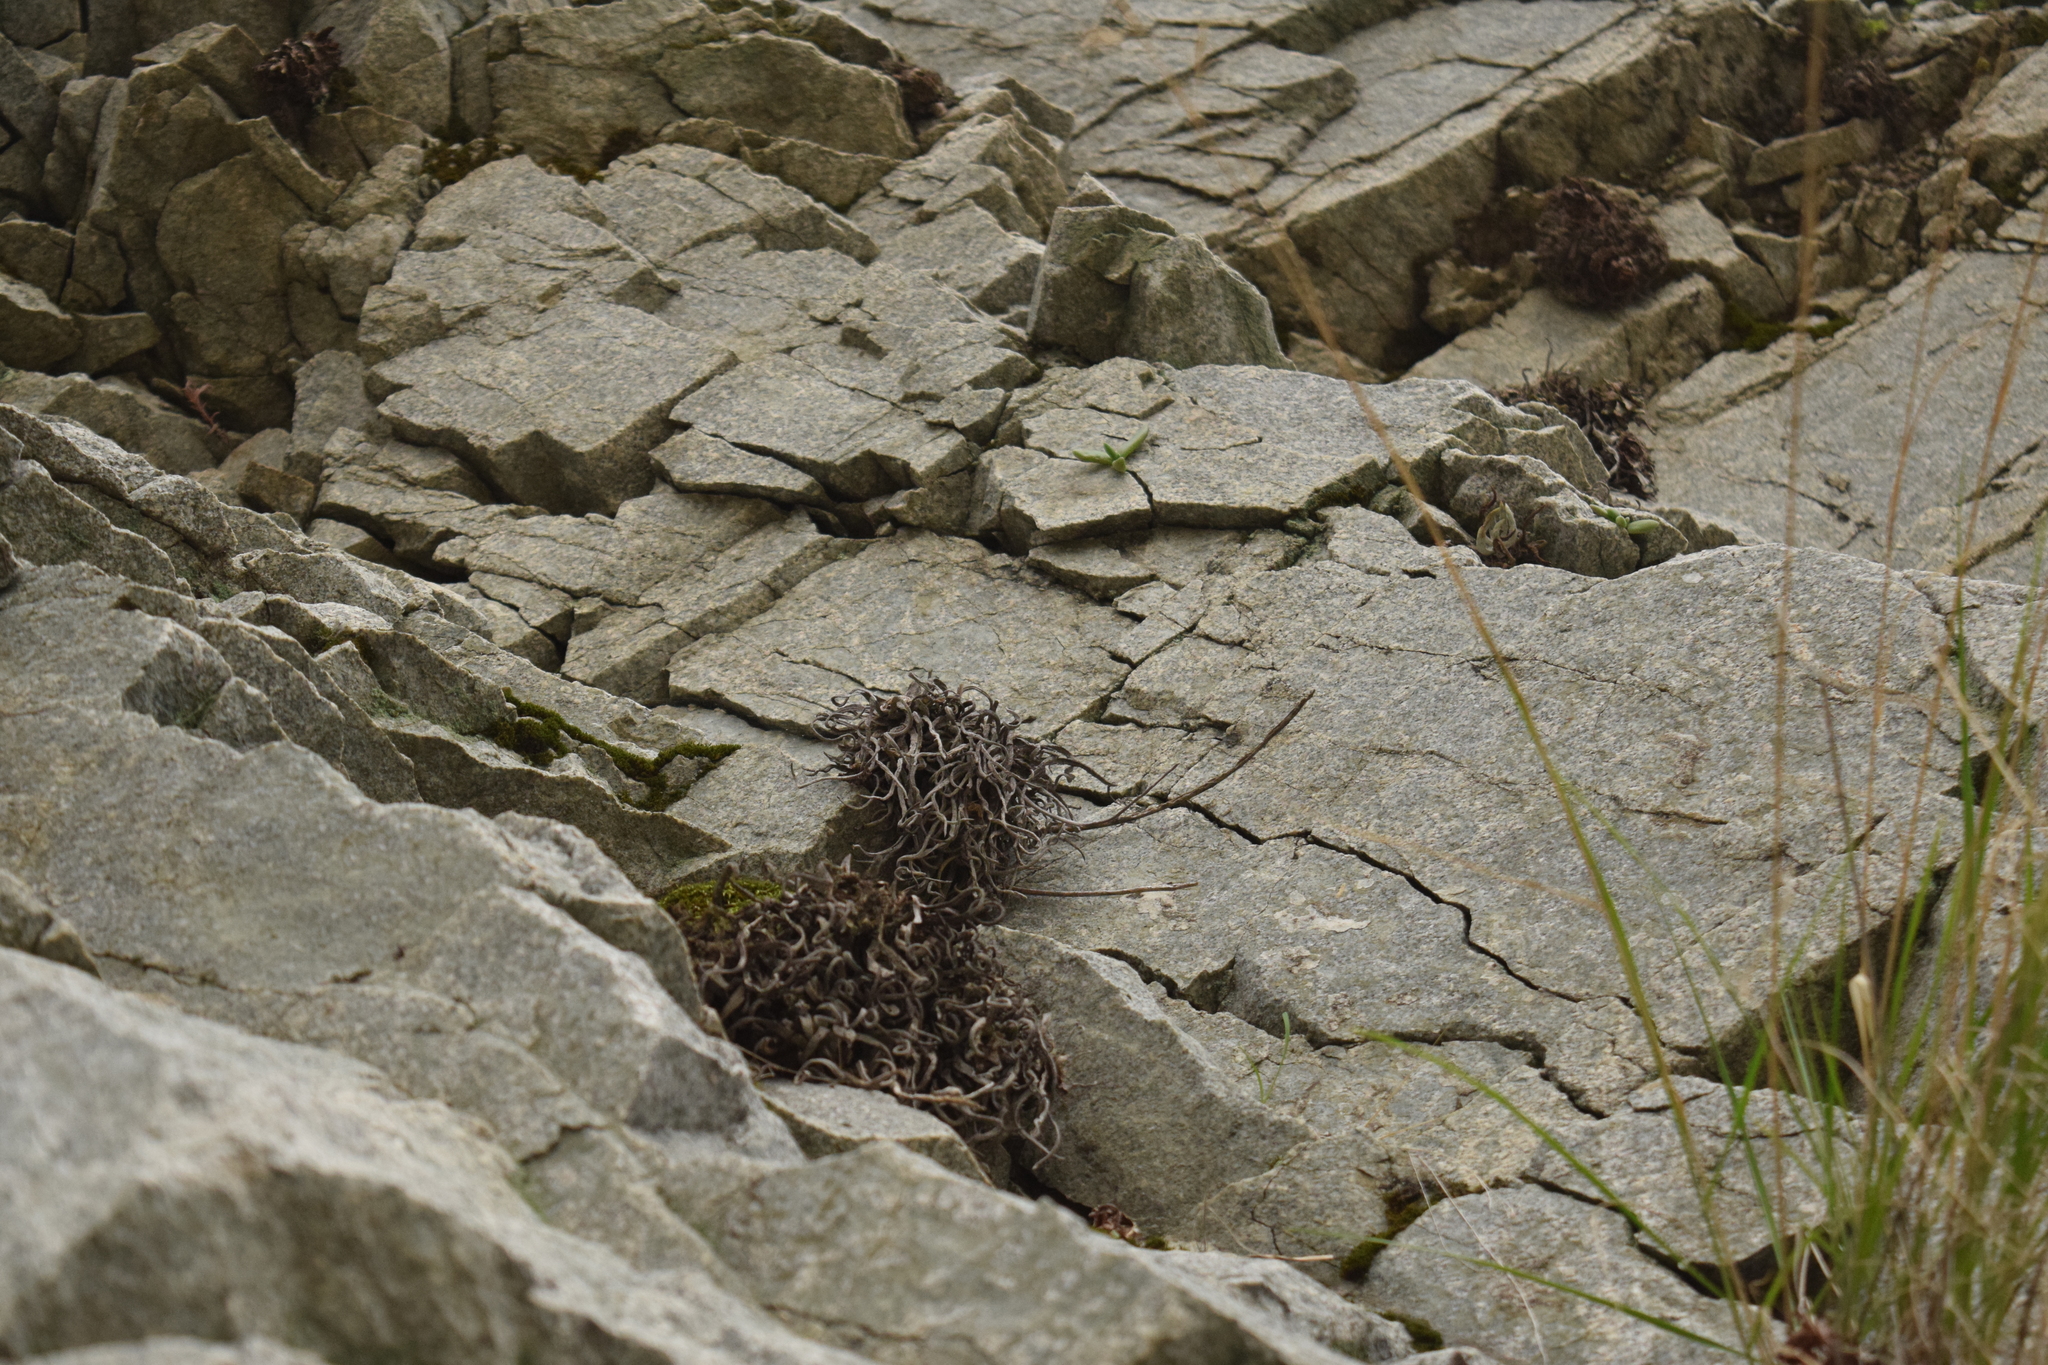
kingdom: Plantae
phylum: Tracheophyta
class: Magnoliopsida
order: Saxifragales
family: Crassulaceae
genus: Dudleya
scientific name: Dudleya densiflora
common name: San gabriel mountains dudleya
